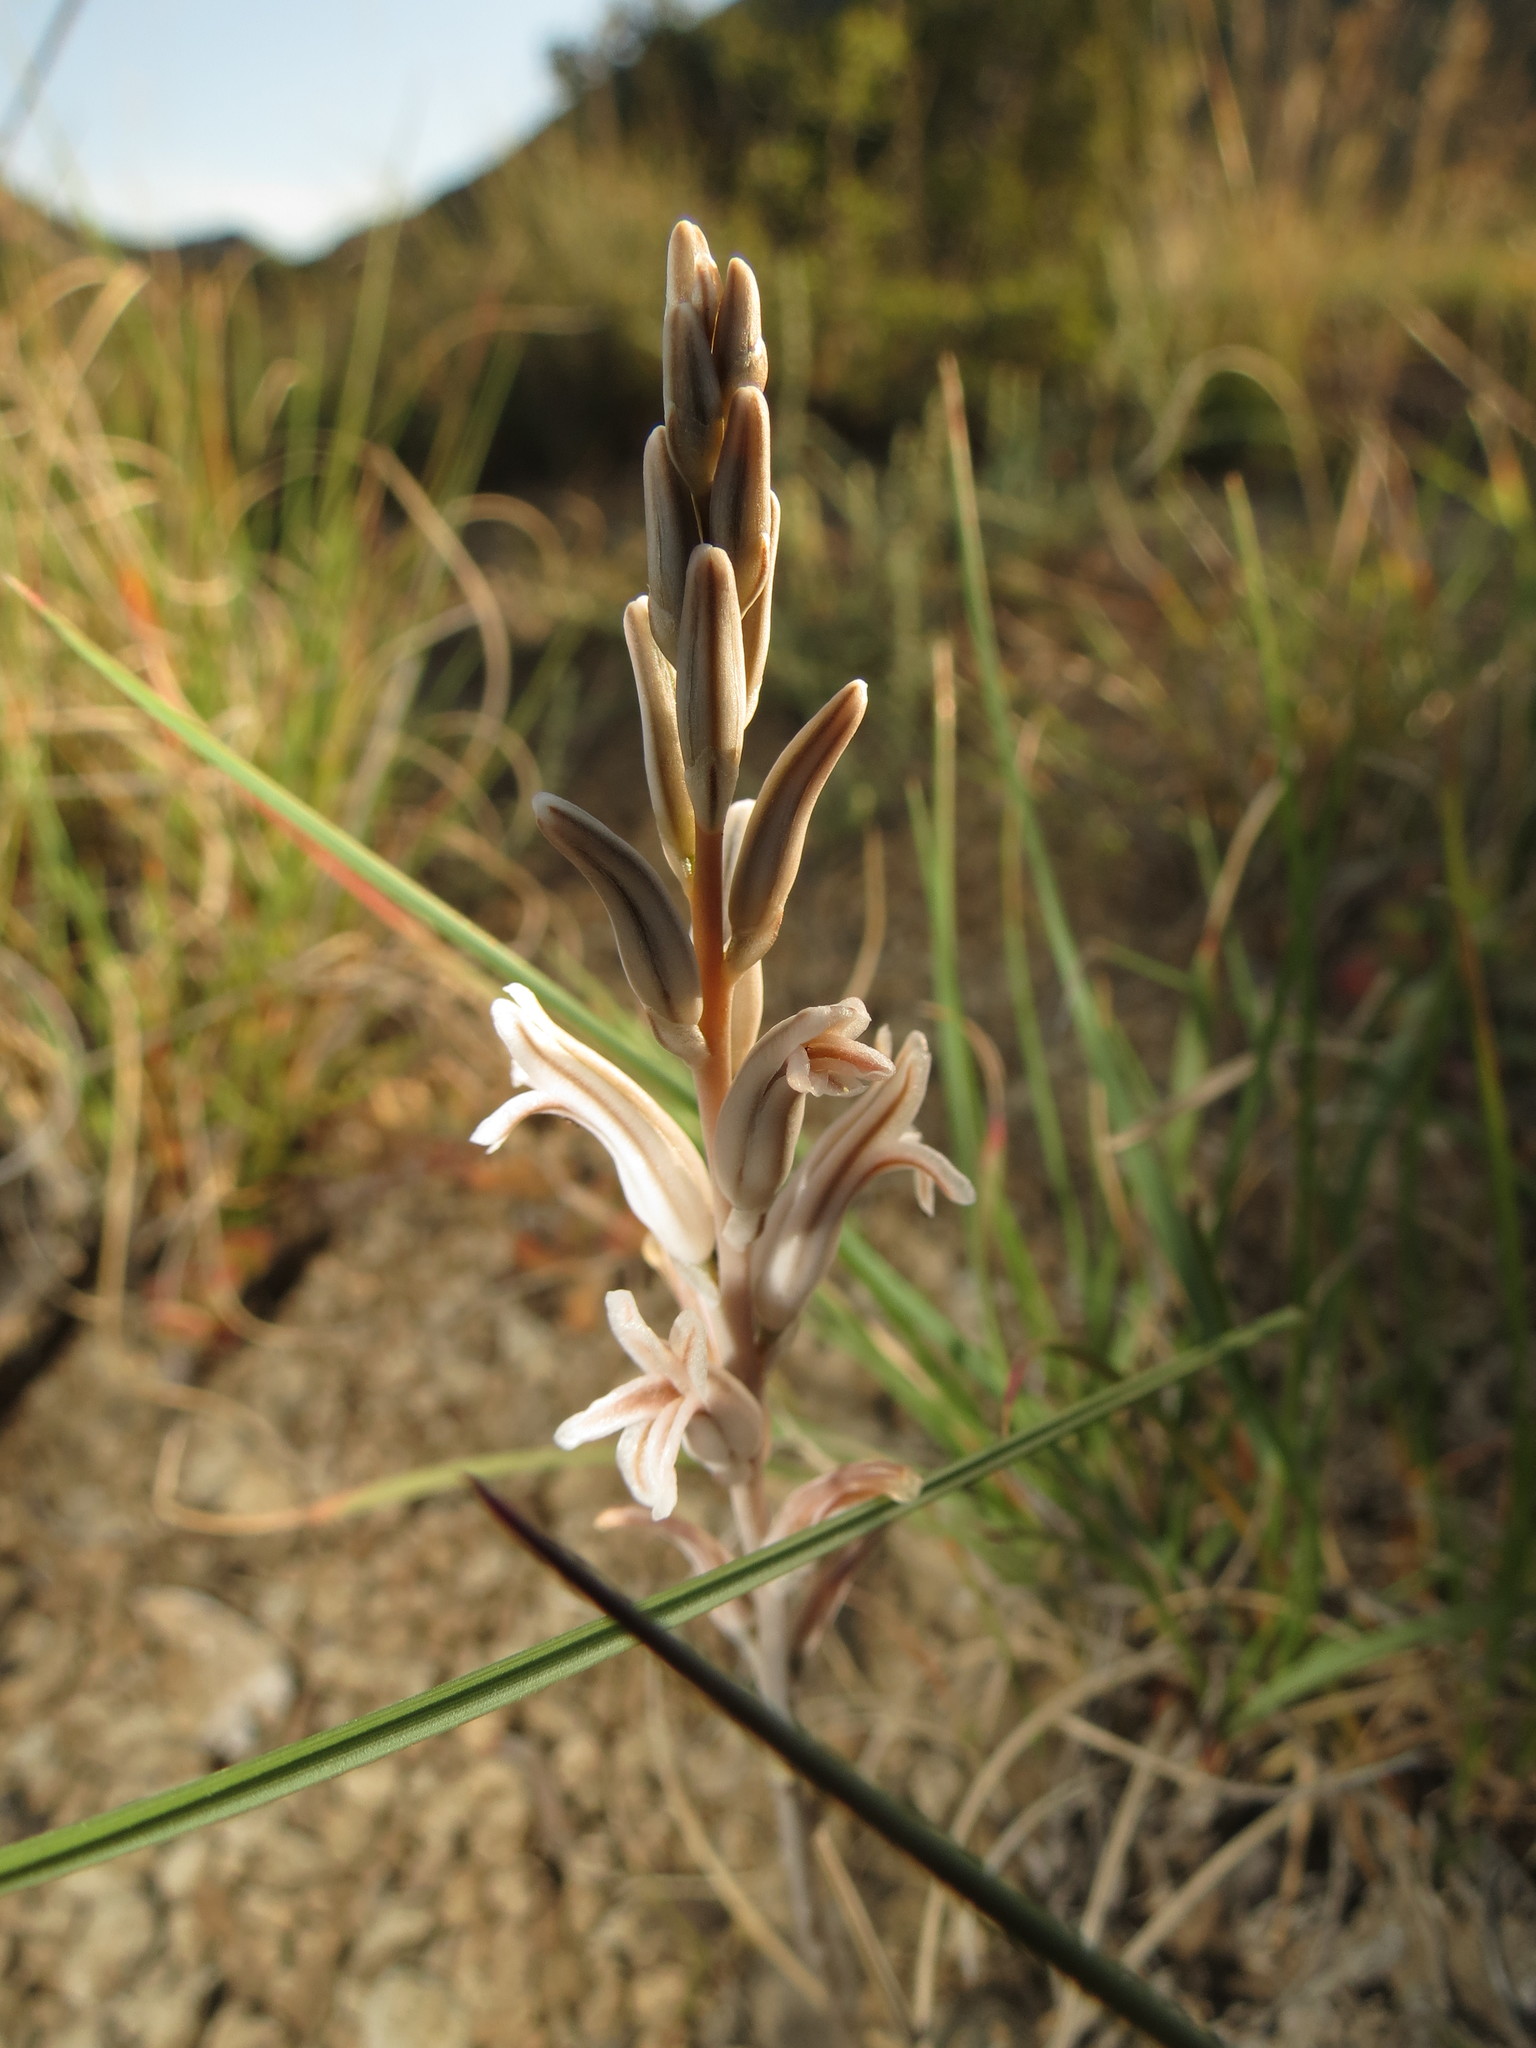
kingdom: Plantae
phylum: Tracheophyta
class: Liliopsida
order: Asparagales
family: Asphodelaceae
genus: Haworthia
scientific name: Haworthia bolusii
